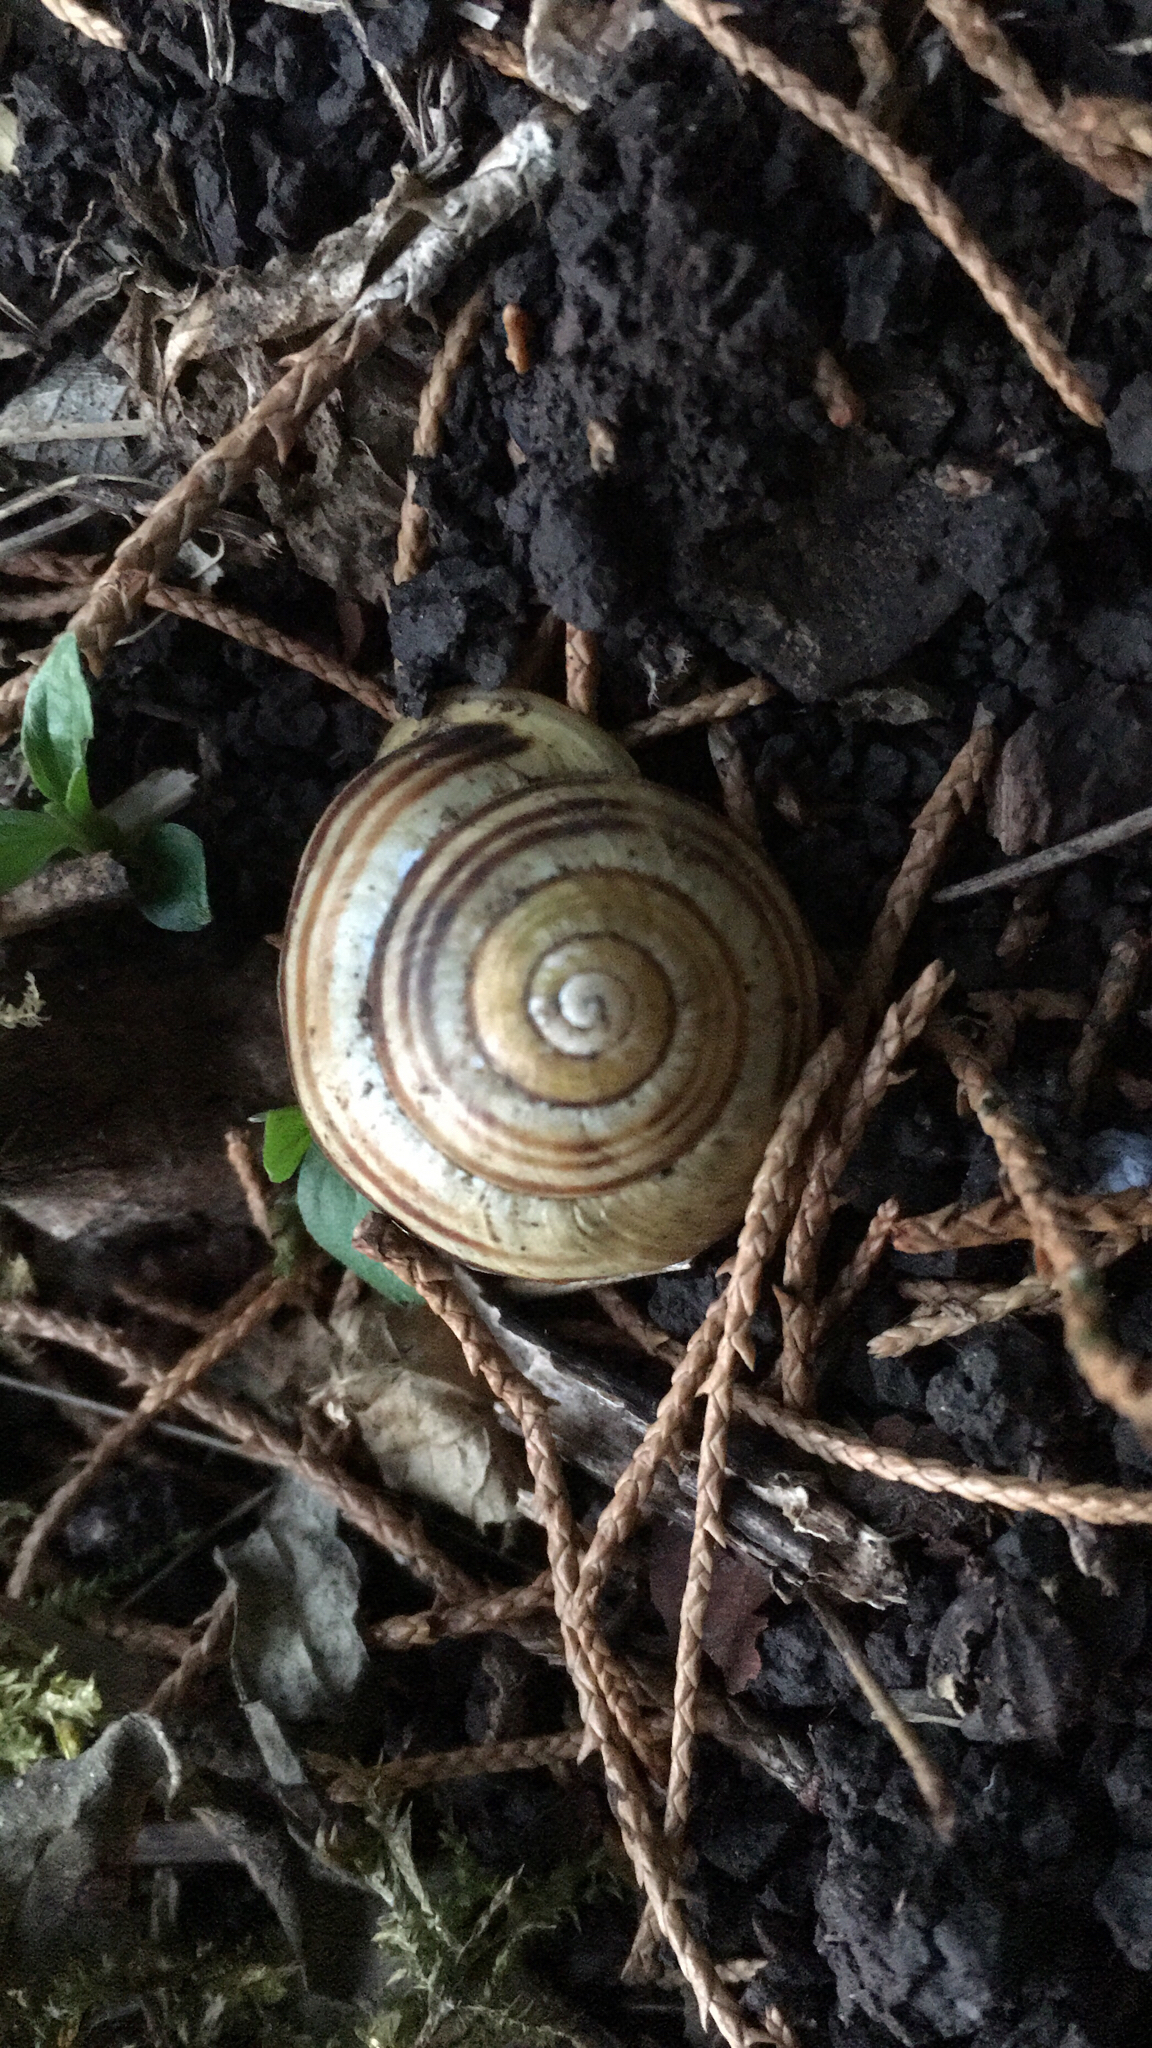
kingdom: Animalia
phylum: Mollusca
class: Gastropoda
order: Stylommatophora
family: Helicidae
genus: Cepaea
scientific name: Cepaea hortensis
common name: White-lip gardensnail
